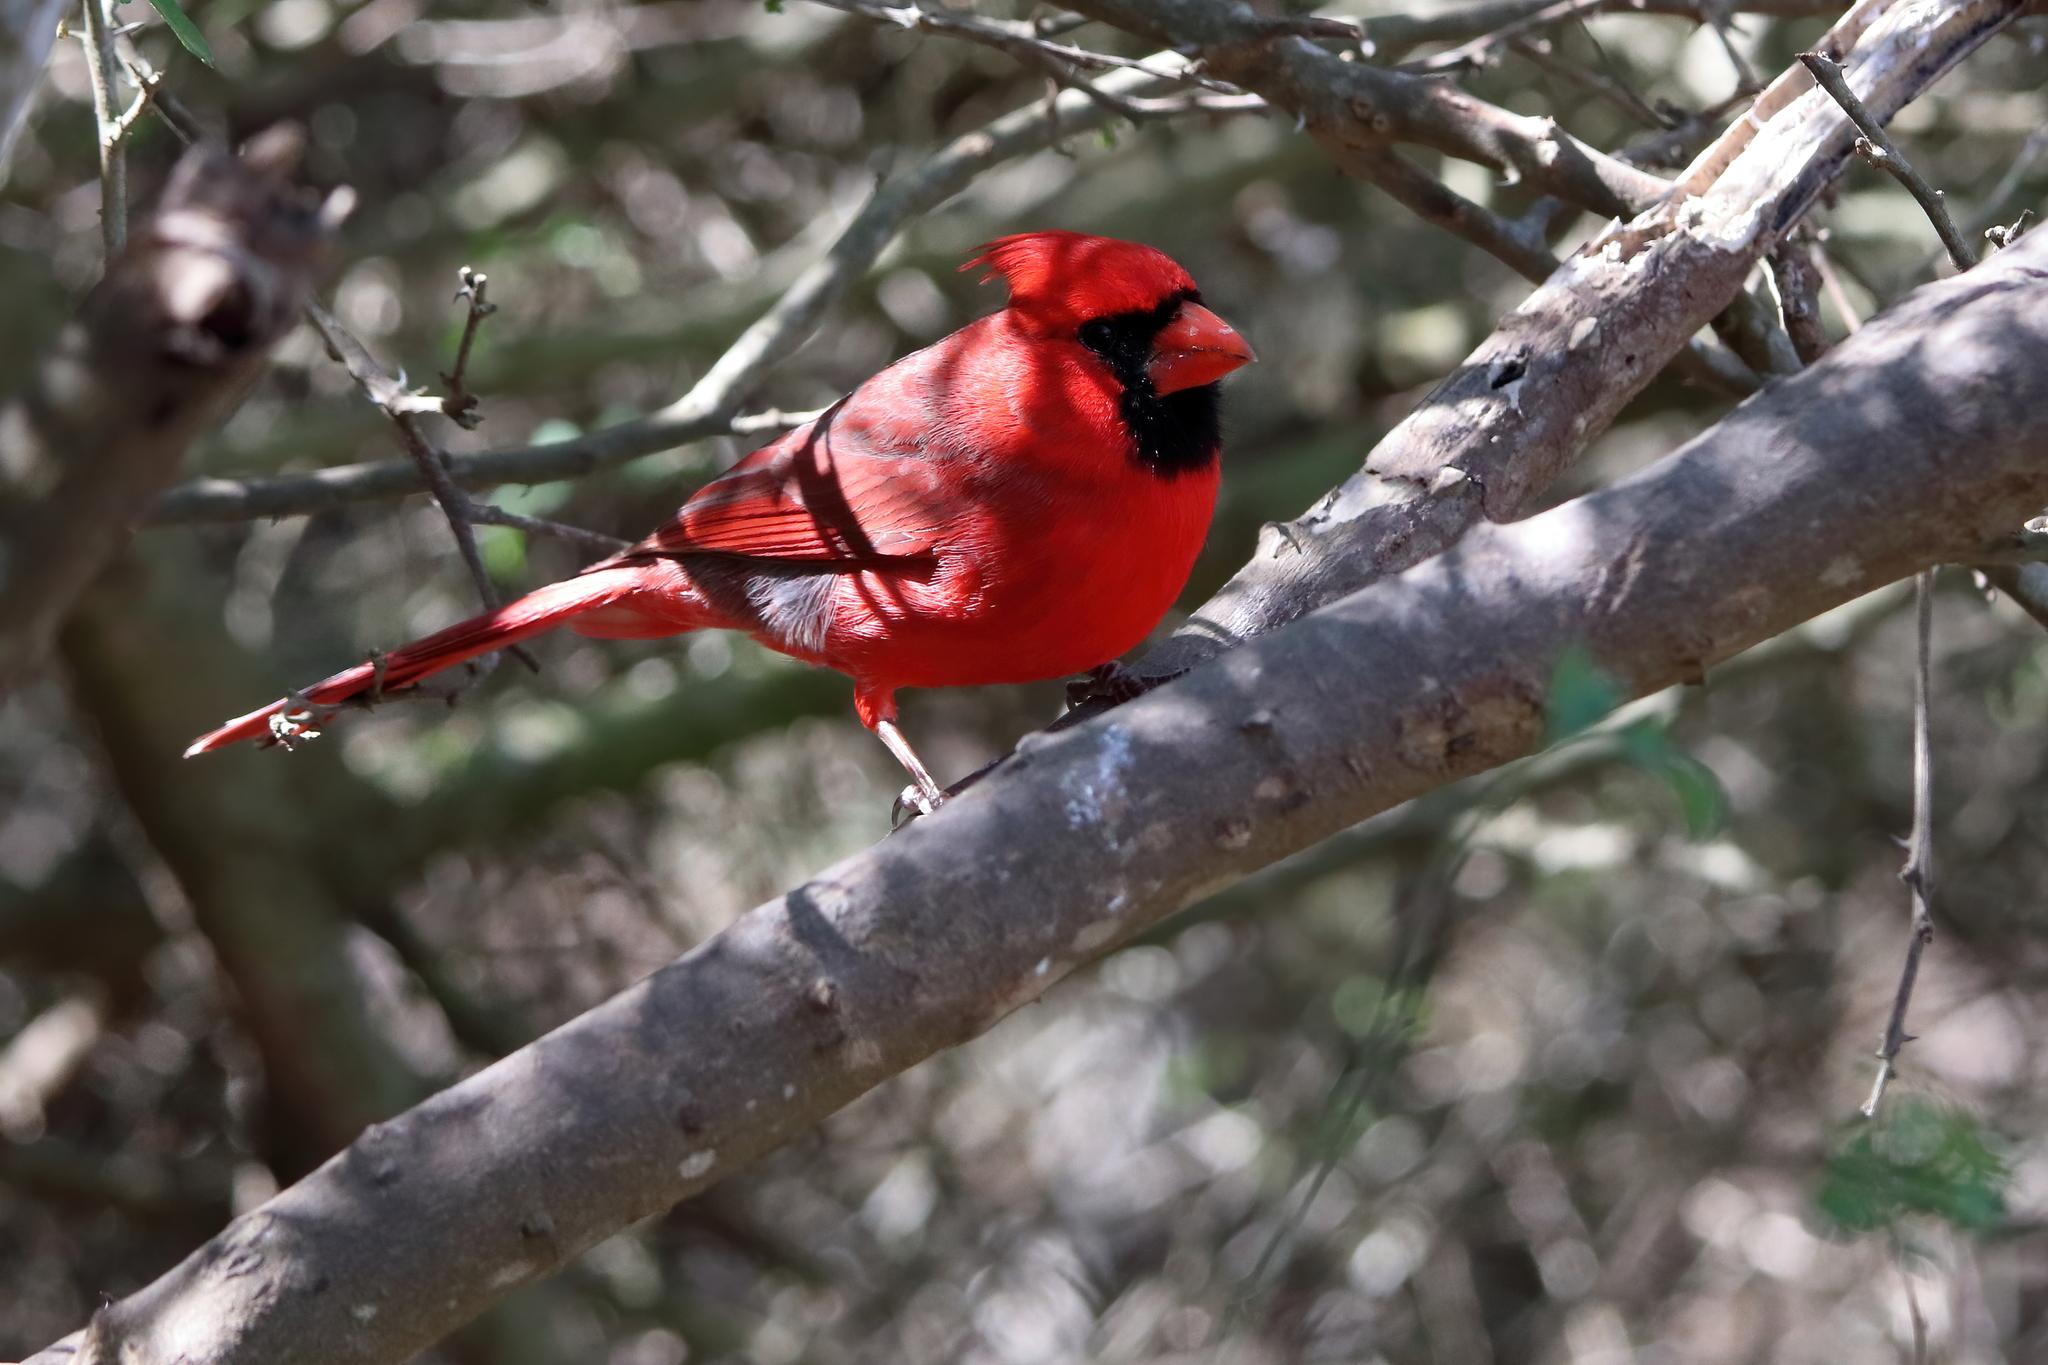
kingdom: Animalia
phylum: Chordata
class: Aves
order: Passeriformes
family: Cardinalidae
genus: Cardinalis
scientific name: Cardinalis cardinalis
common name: Northern cardinal
